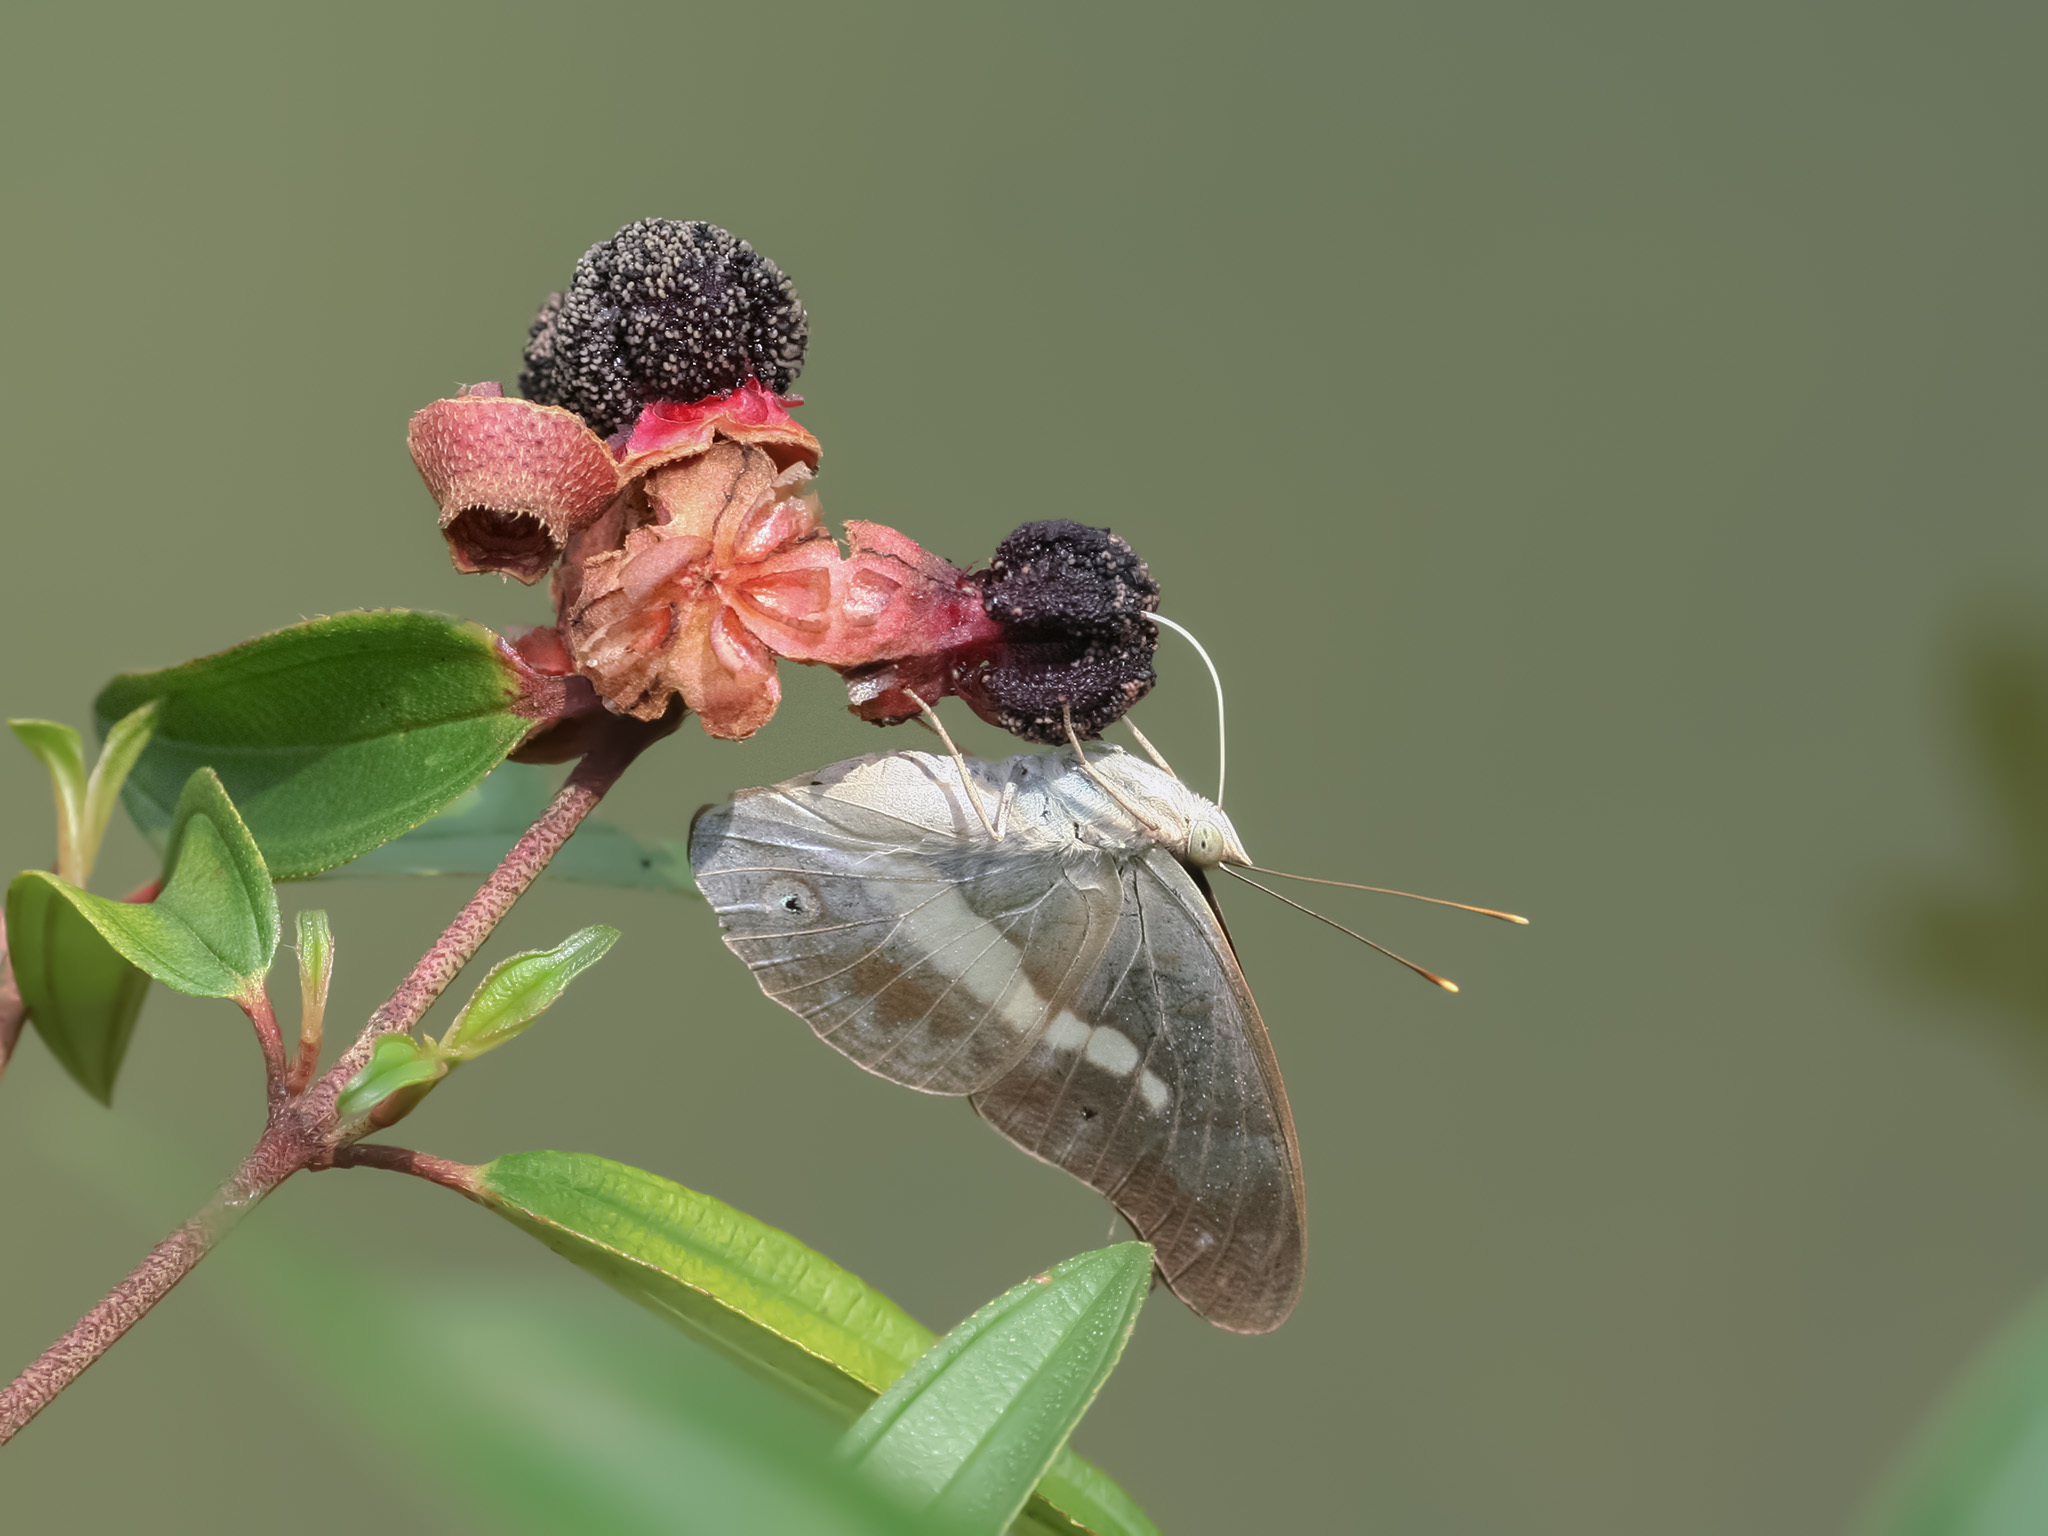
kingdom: Animalia
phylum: Arthropoda
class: Insecta
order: Lepidoptera
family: Nymphalidae
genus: Eulaceura
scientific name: Eulaceura osteria
